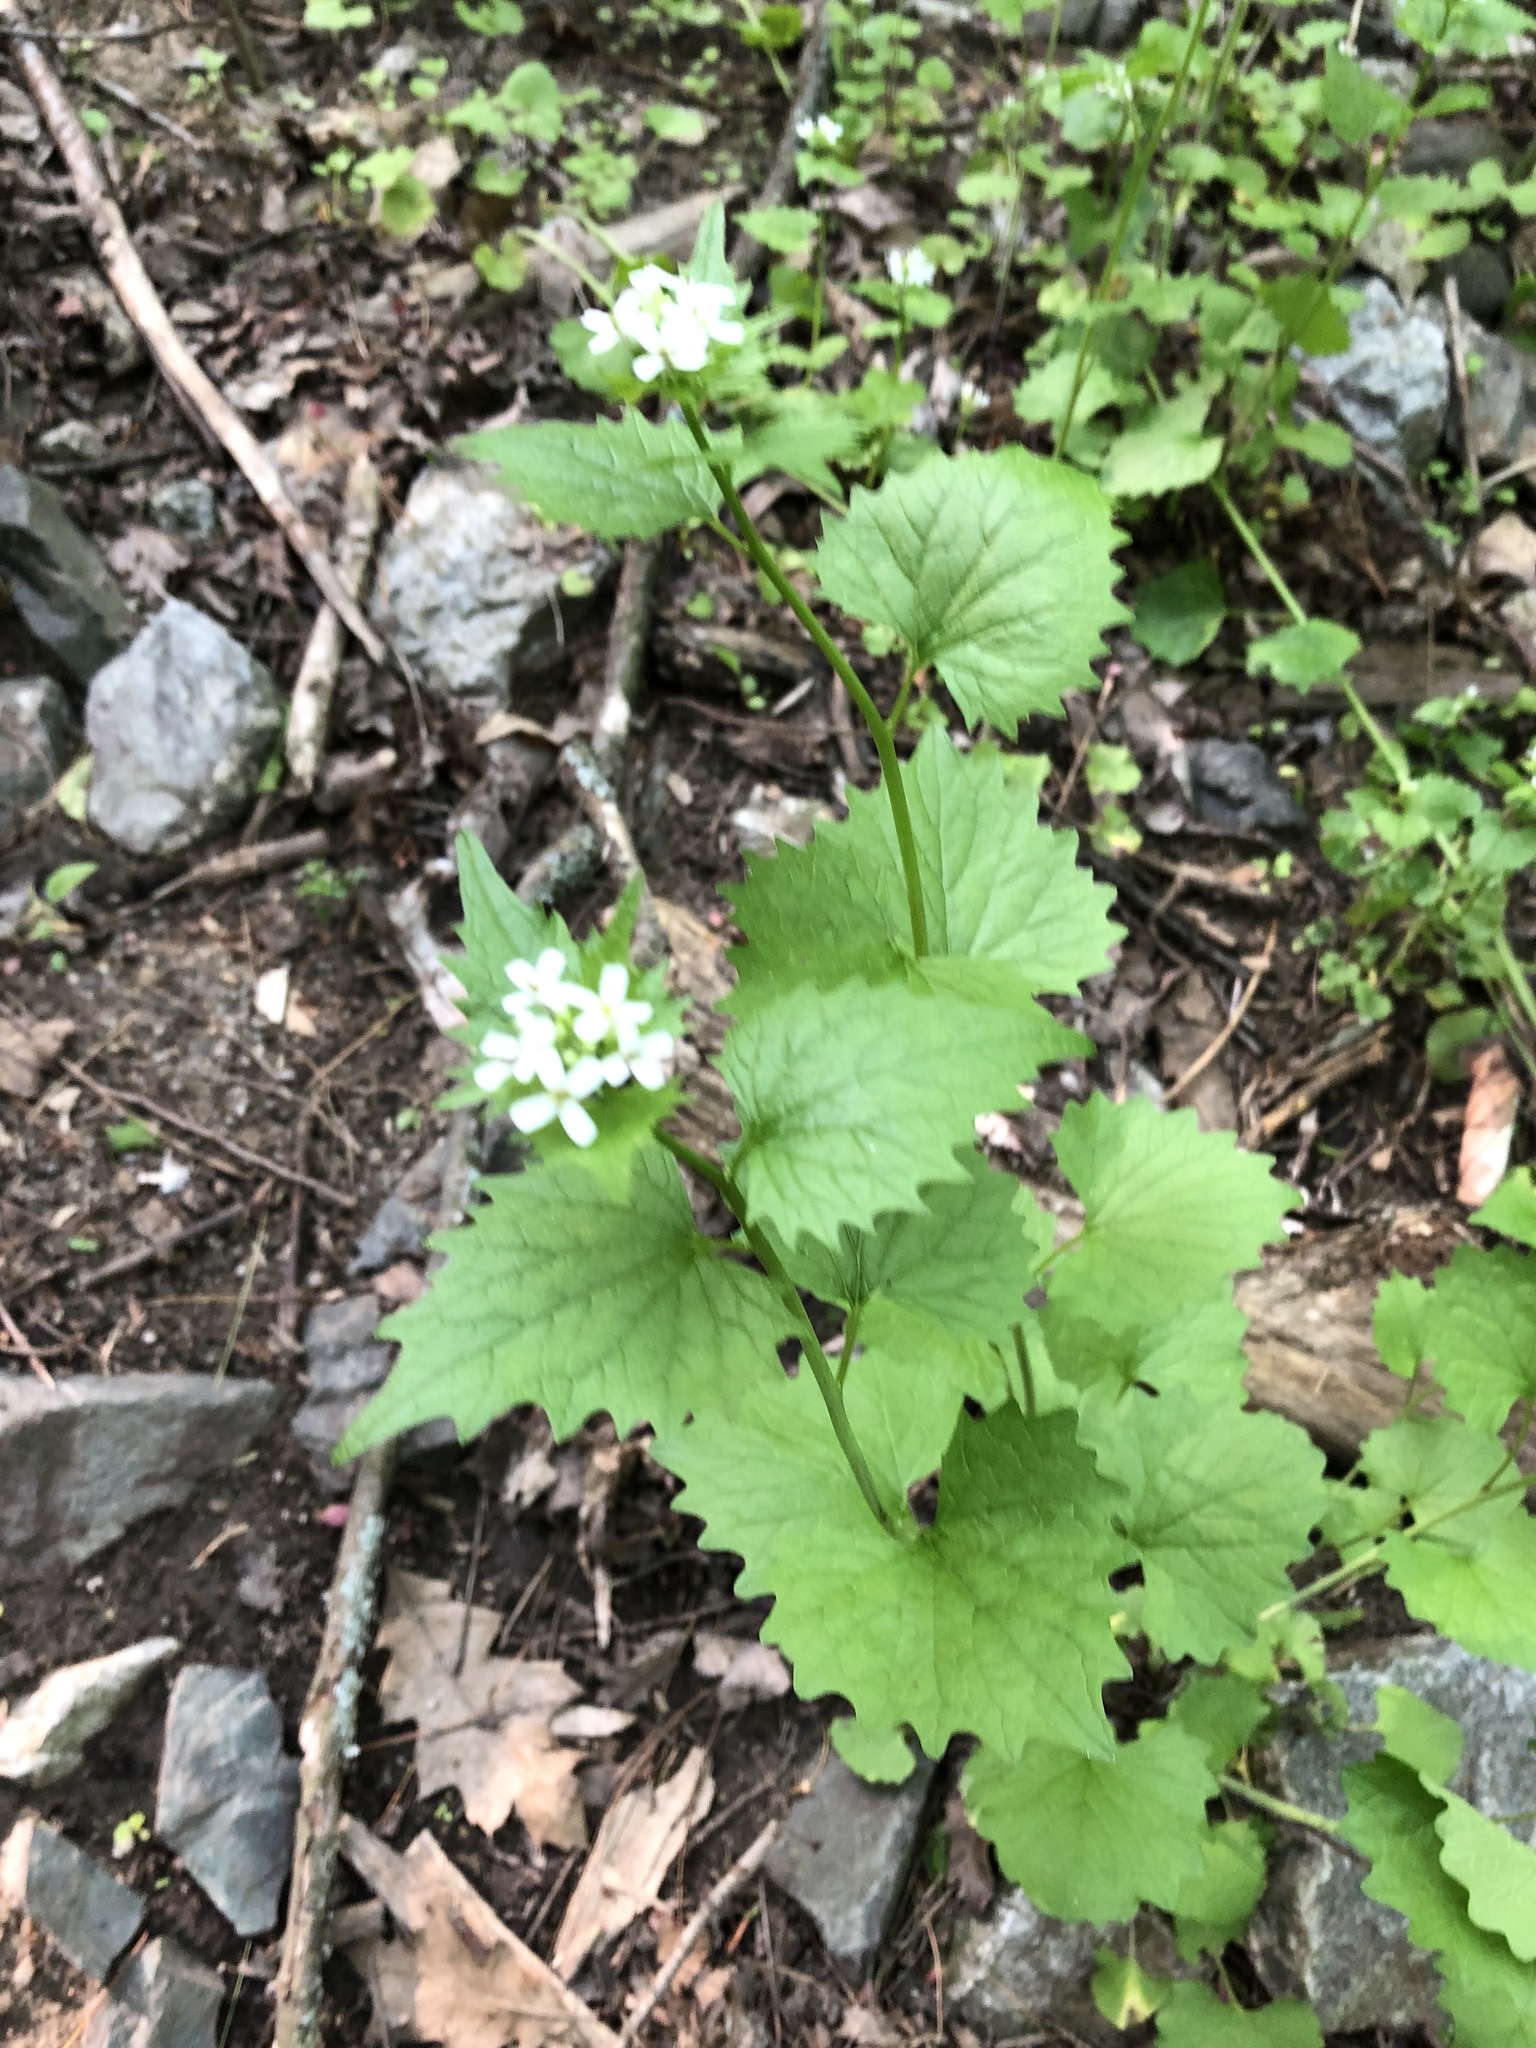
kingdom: Plantae
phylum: Tracheophyta
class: Magnoliopsida
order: Brassicales
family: Brassicaceae
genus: Alliaria
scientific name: Alliaria petiolata
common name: Garlic mustard
